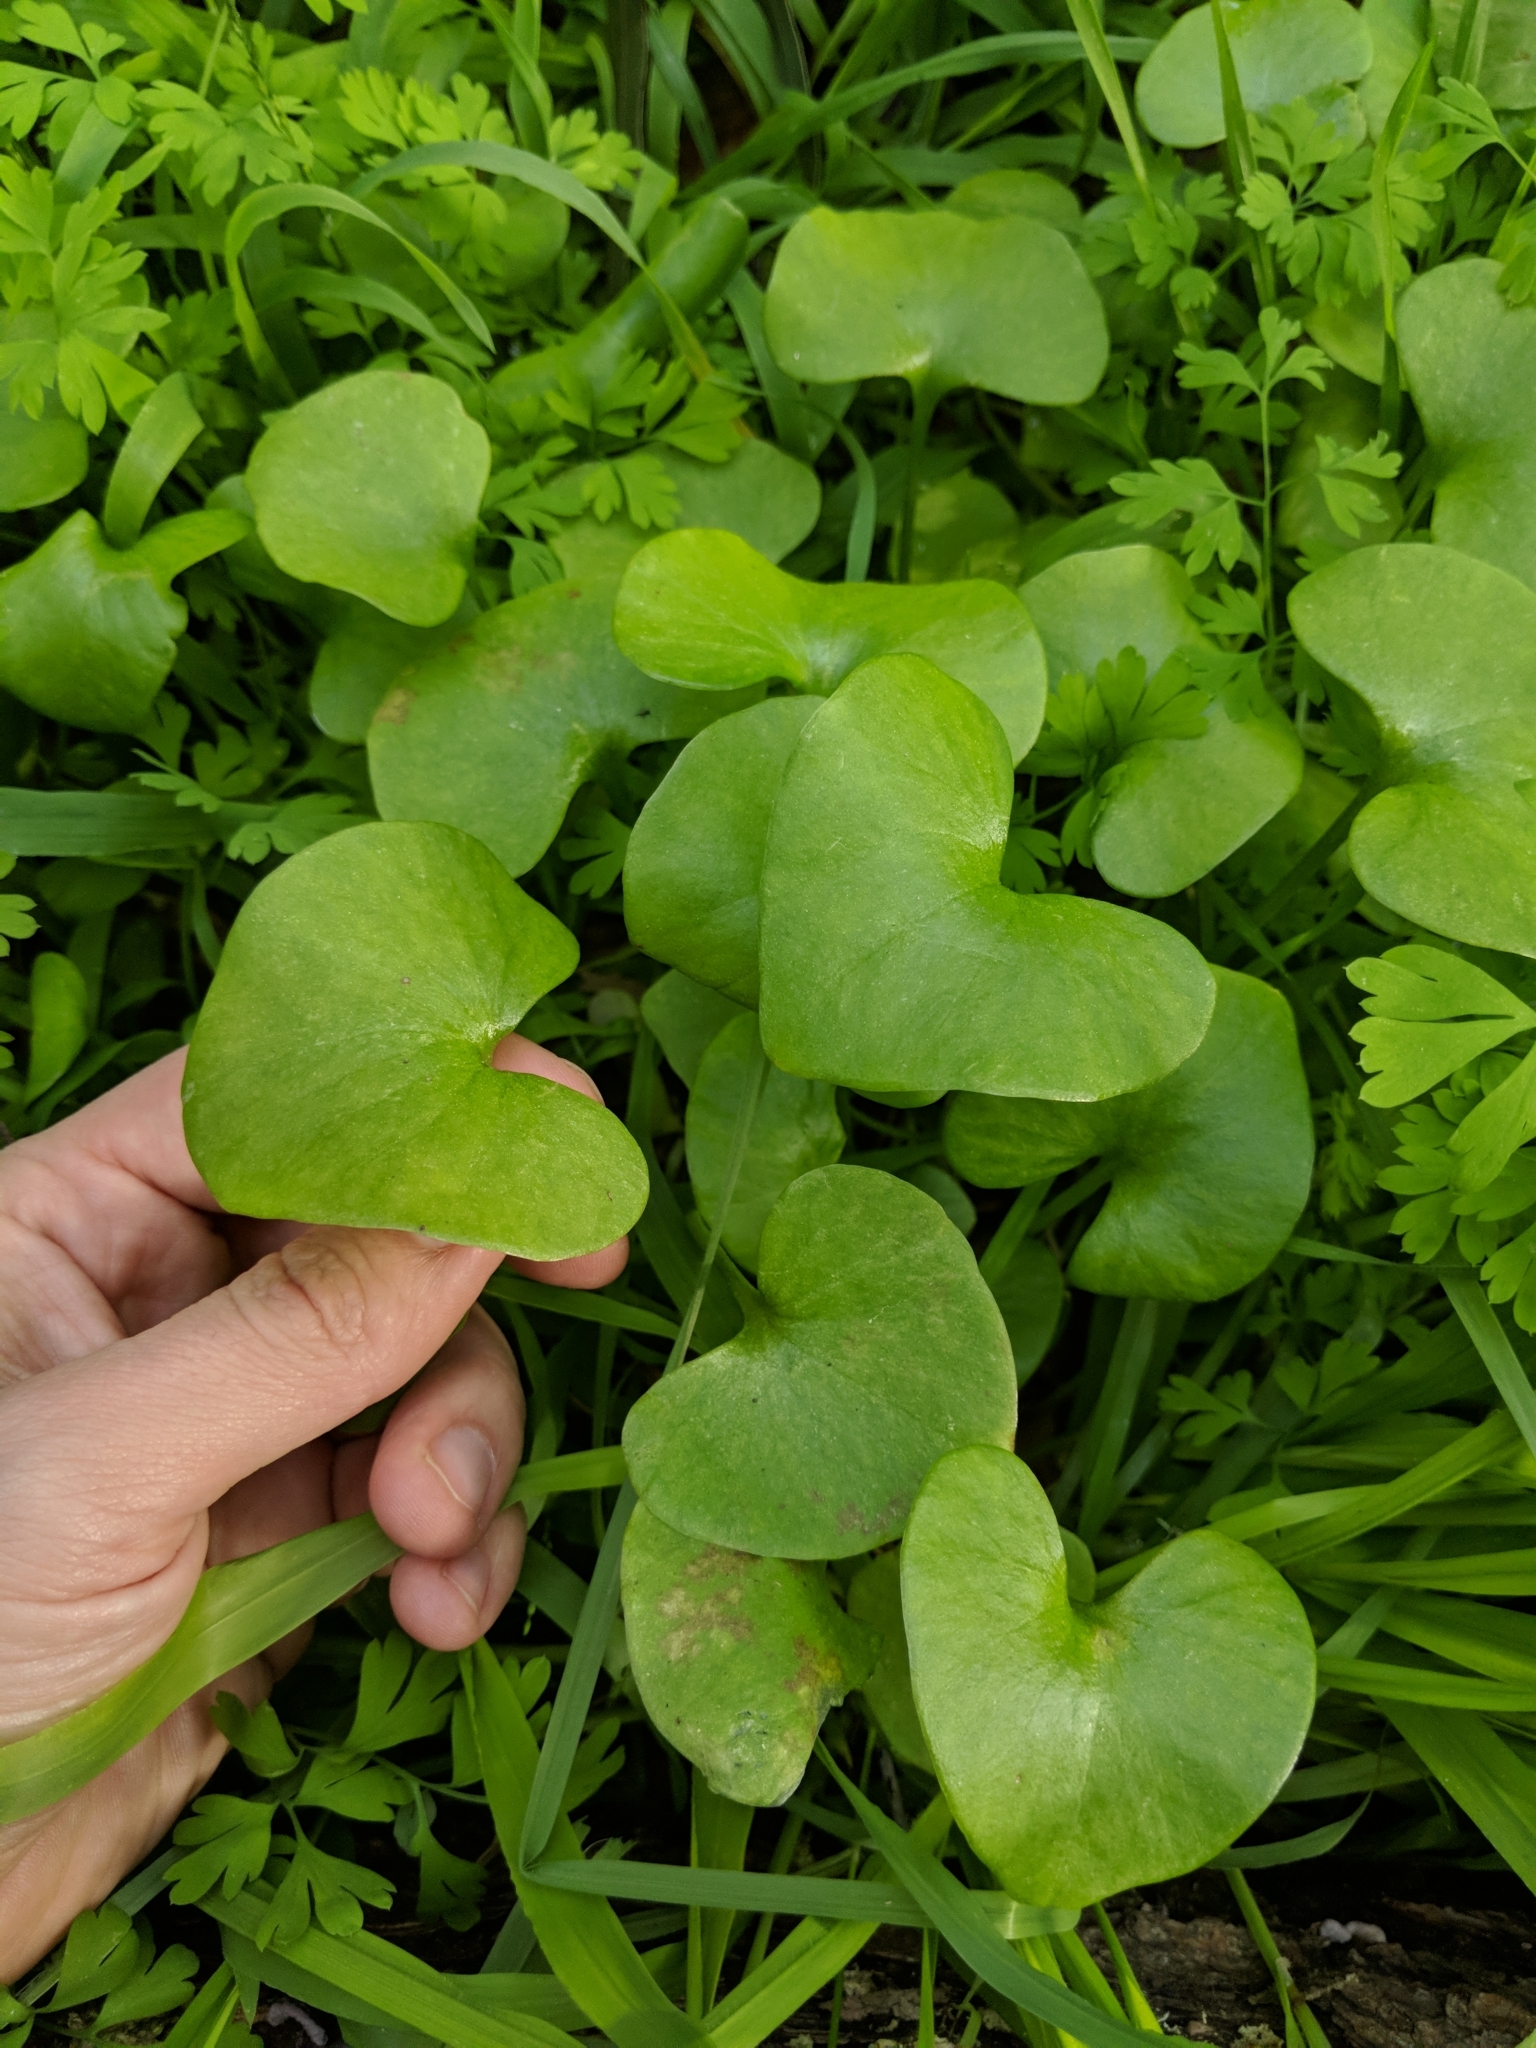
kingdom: Plantae
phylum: Tracheophyta
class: Magnoliopsida
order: Caryophyllales
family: Montiaceae
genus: Claytonia
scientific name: Claytonia perfoliata
